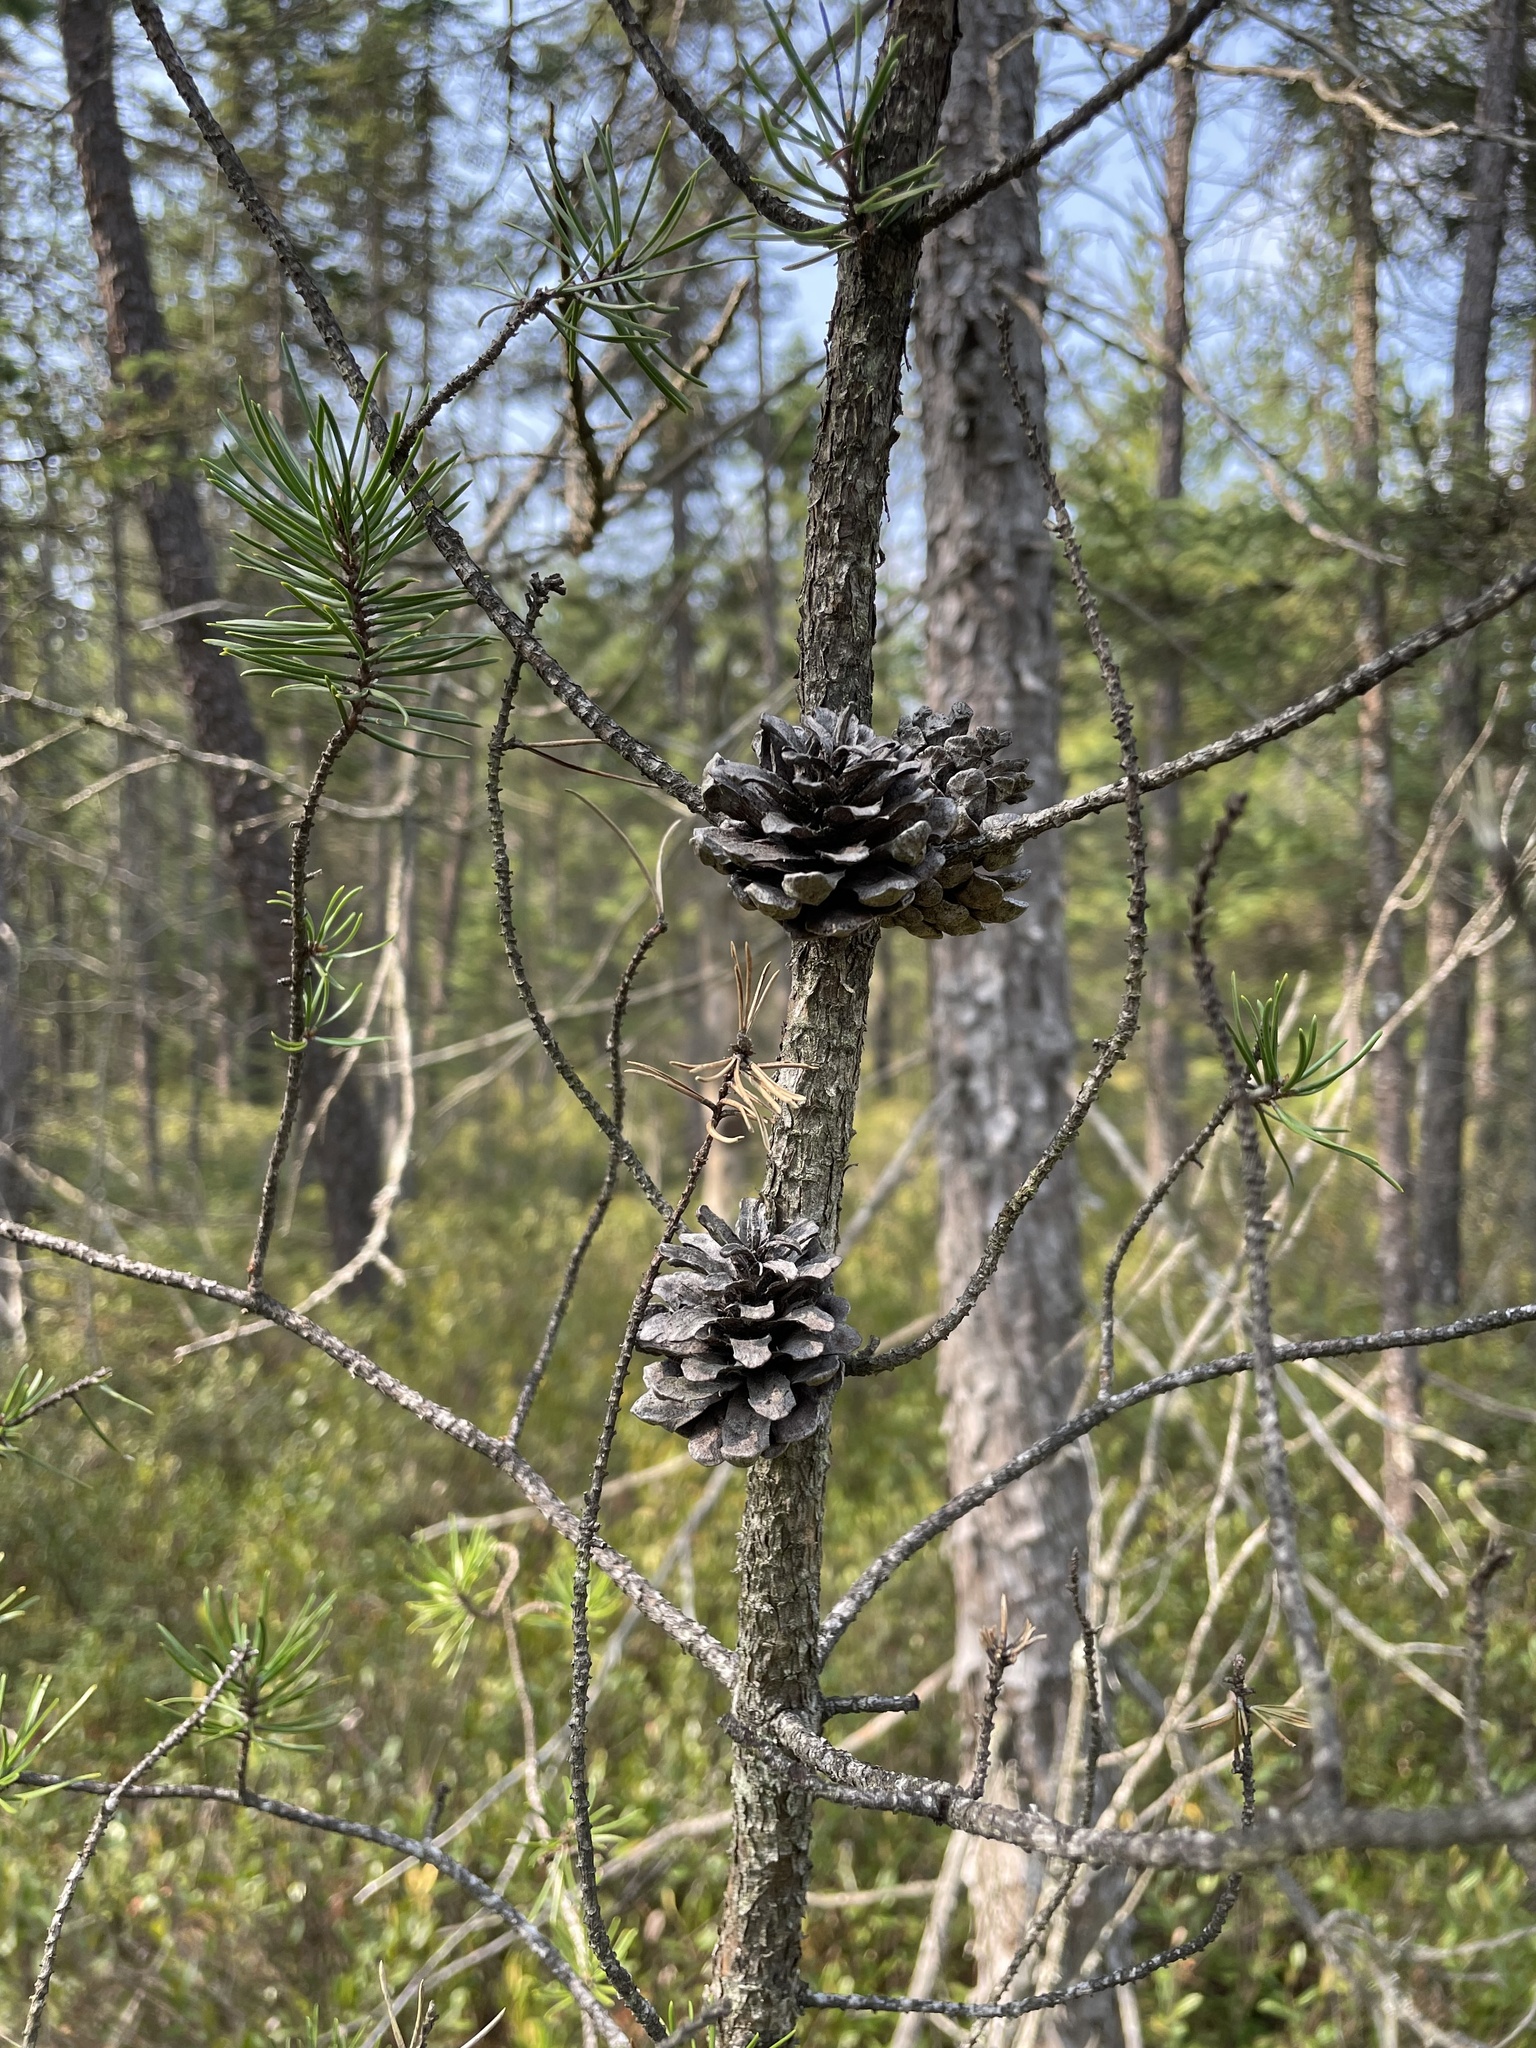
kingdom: Plantae
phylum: Tracheophyta
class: Pinopsida
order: Pinales
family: Pinaceae
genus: Pinus
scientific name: Pinus banksiana
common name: Jack pine
